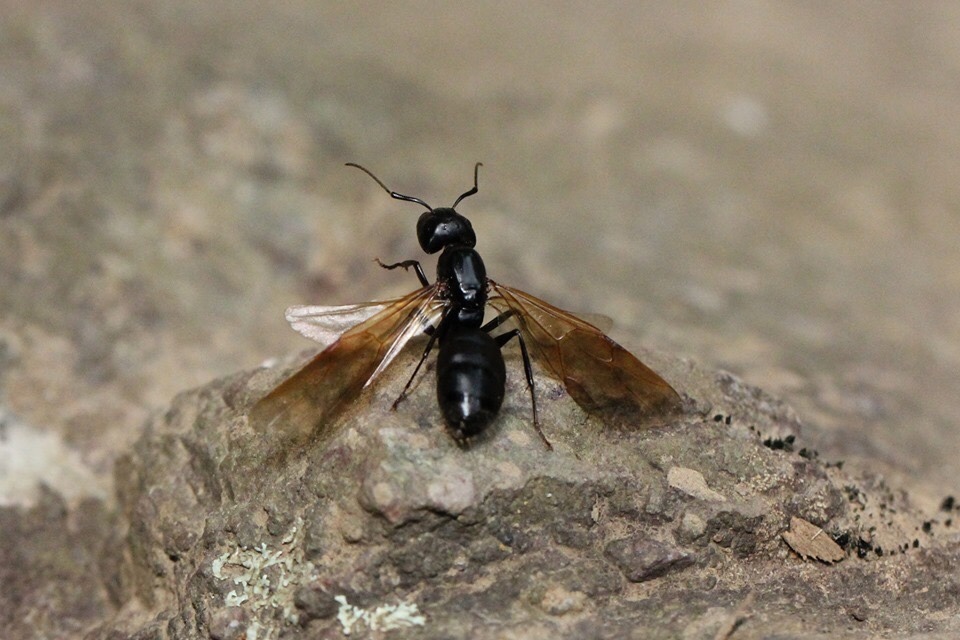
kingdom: Animalia
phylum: Arthropoda
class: Insecta
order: Hymenoptera
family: Formicidae
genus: Camponotus
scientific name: Camponotus pennsylvanicus
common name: Black carpenter ant
